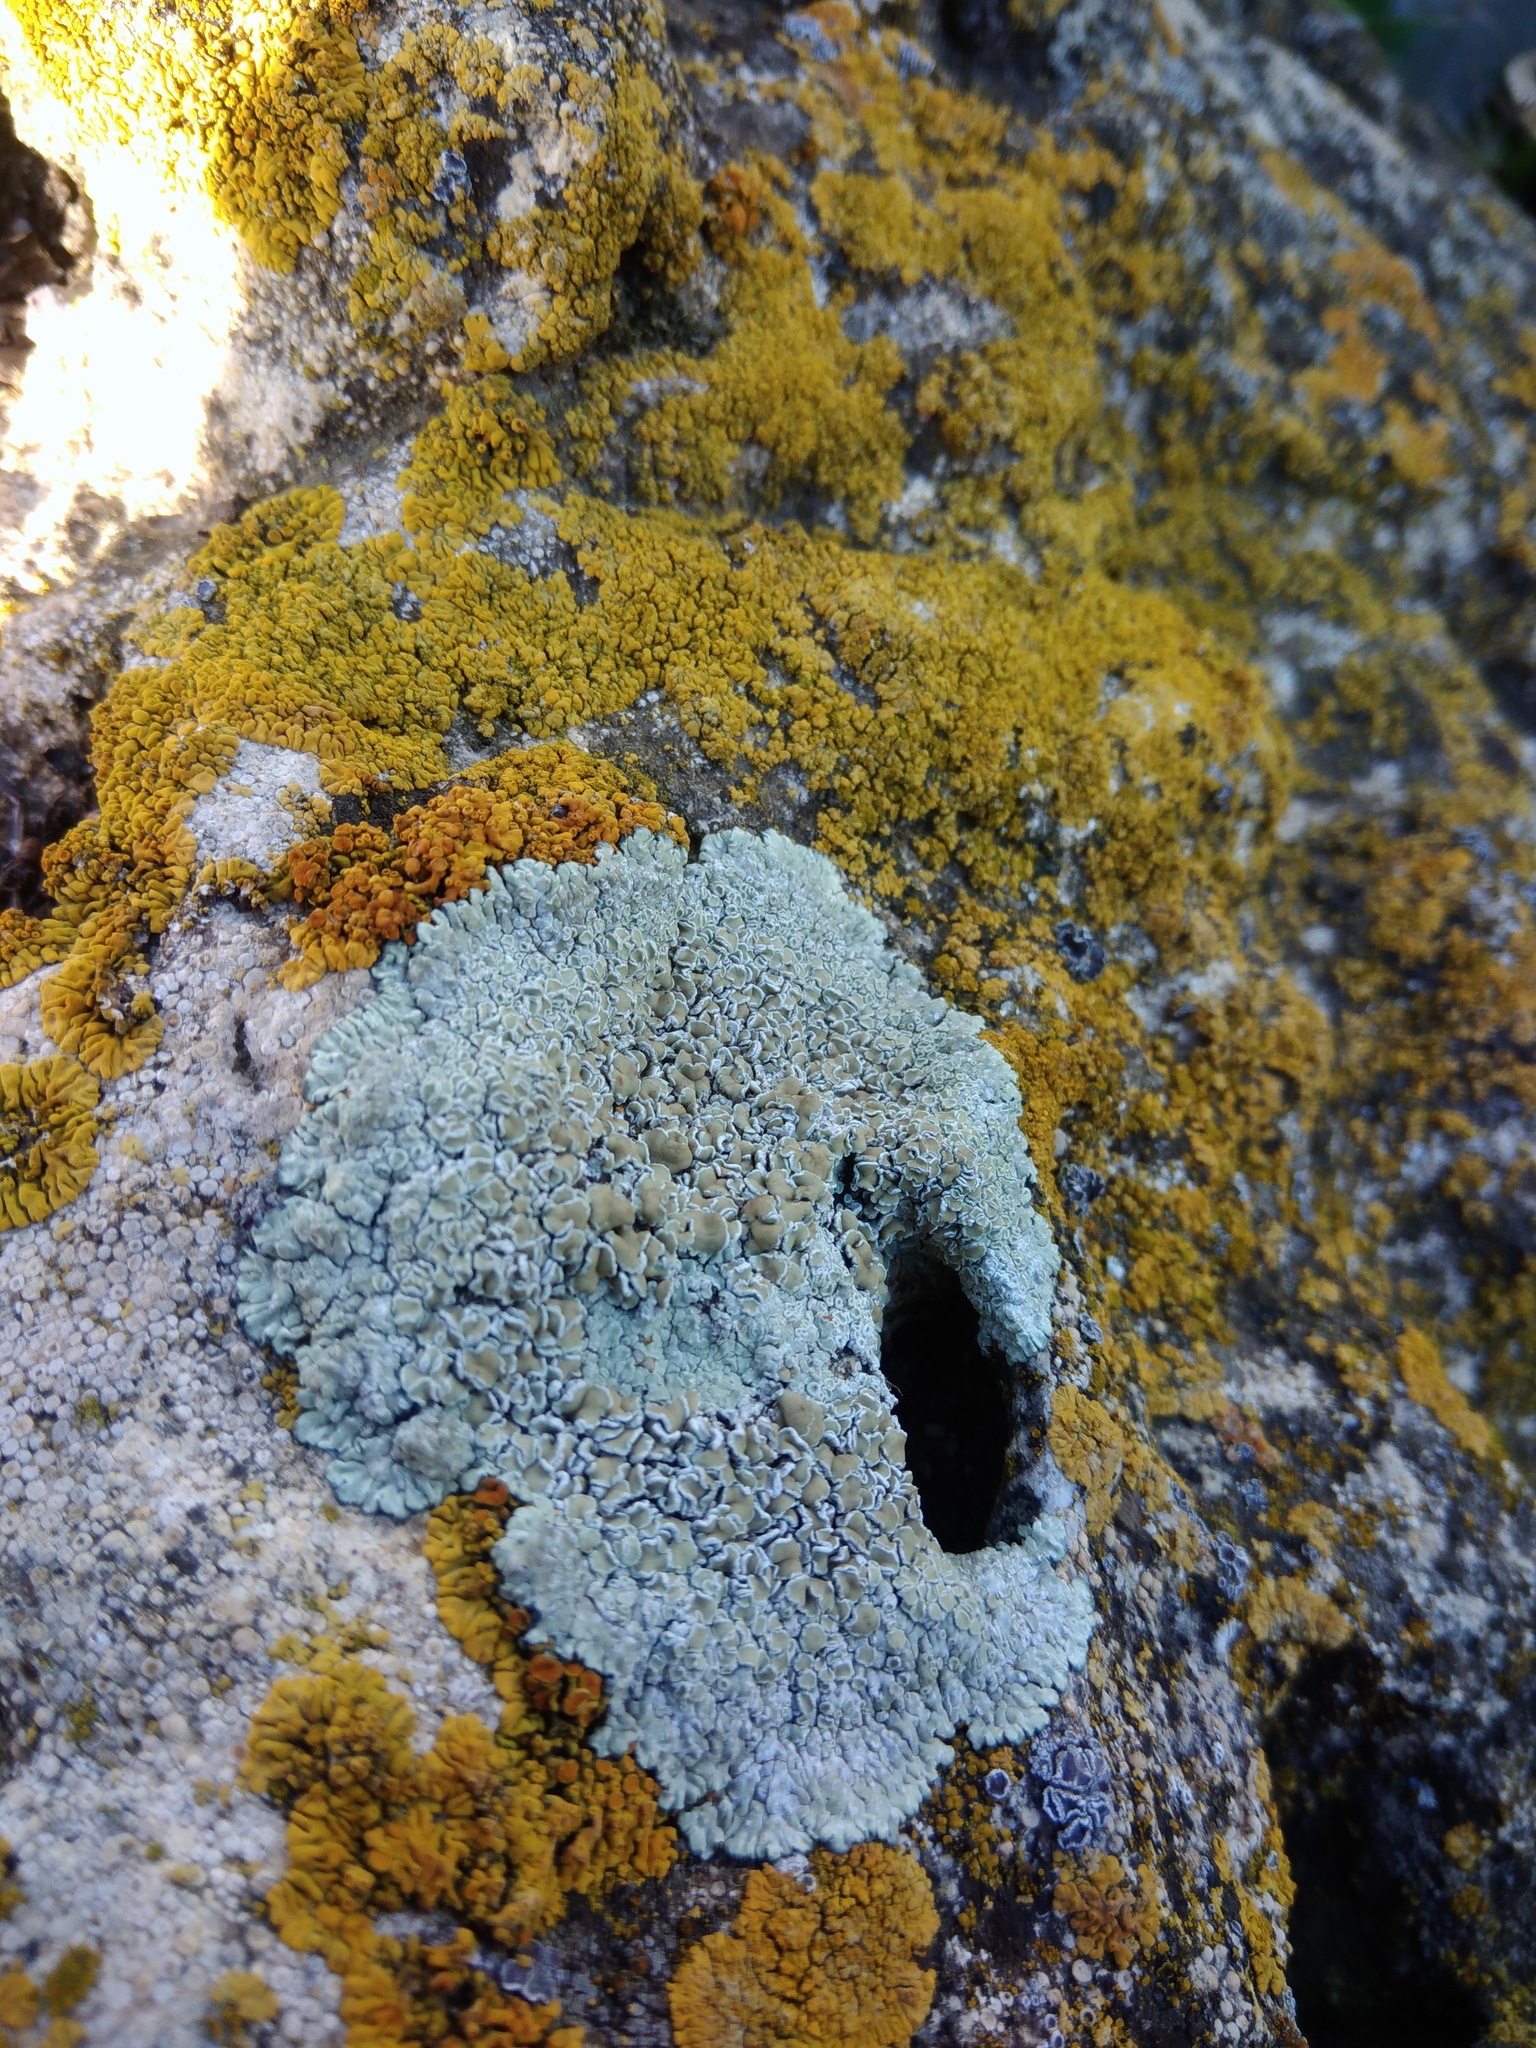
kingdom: Fungi
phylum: Ascomycota
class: Lecanoromycetes
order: Lecanorales
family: Lecanoraceae
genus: Protoparmeliopsis
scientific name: Protoparmeliopsis muralis
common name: Stonewall rim lichen
